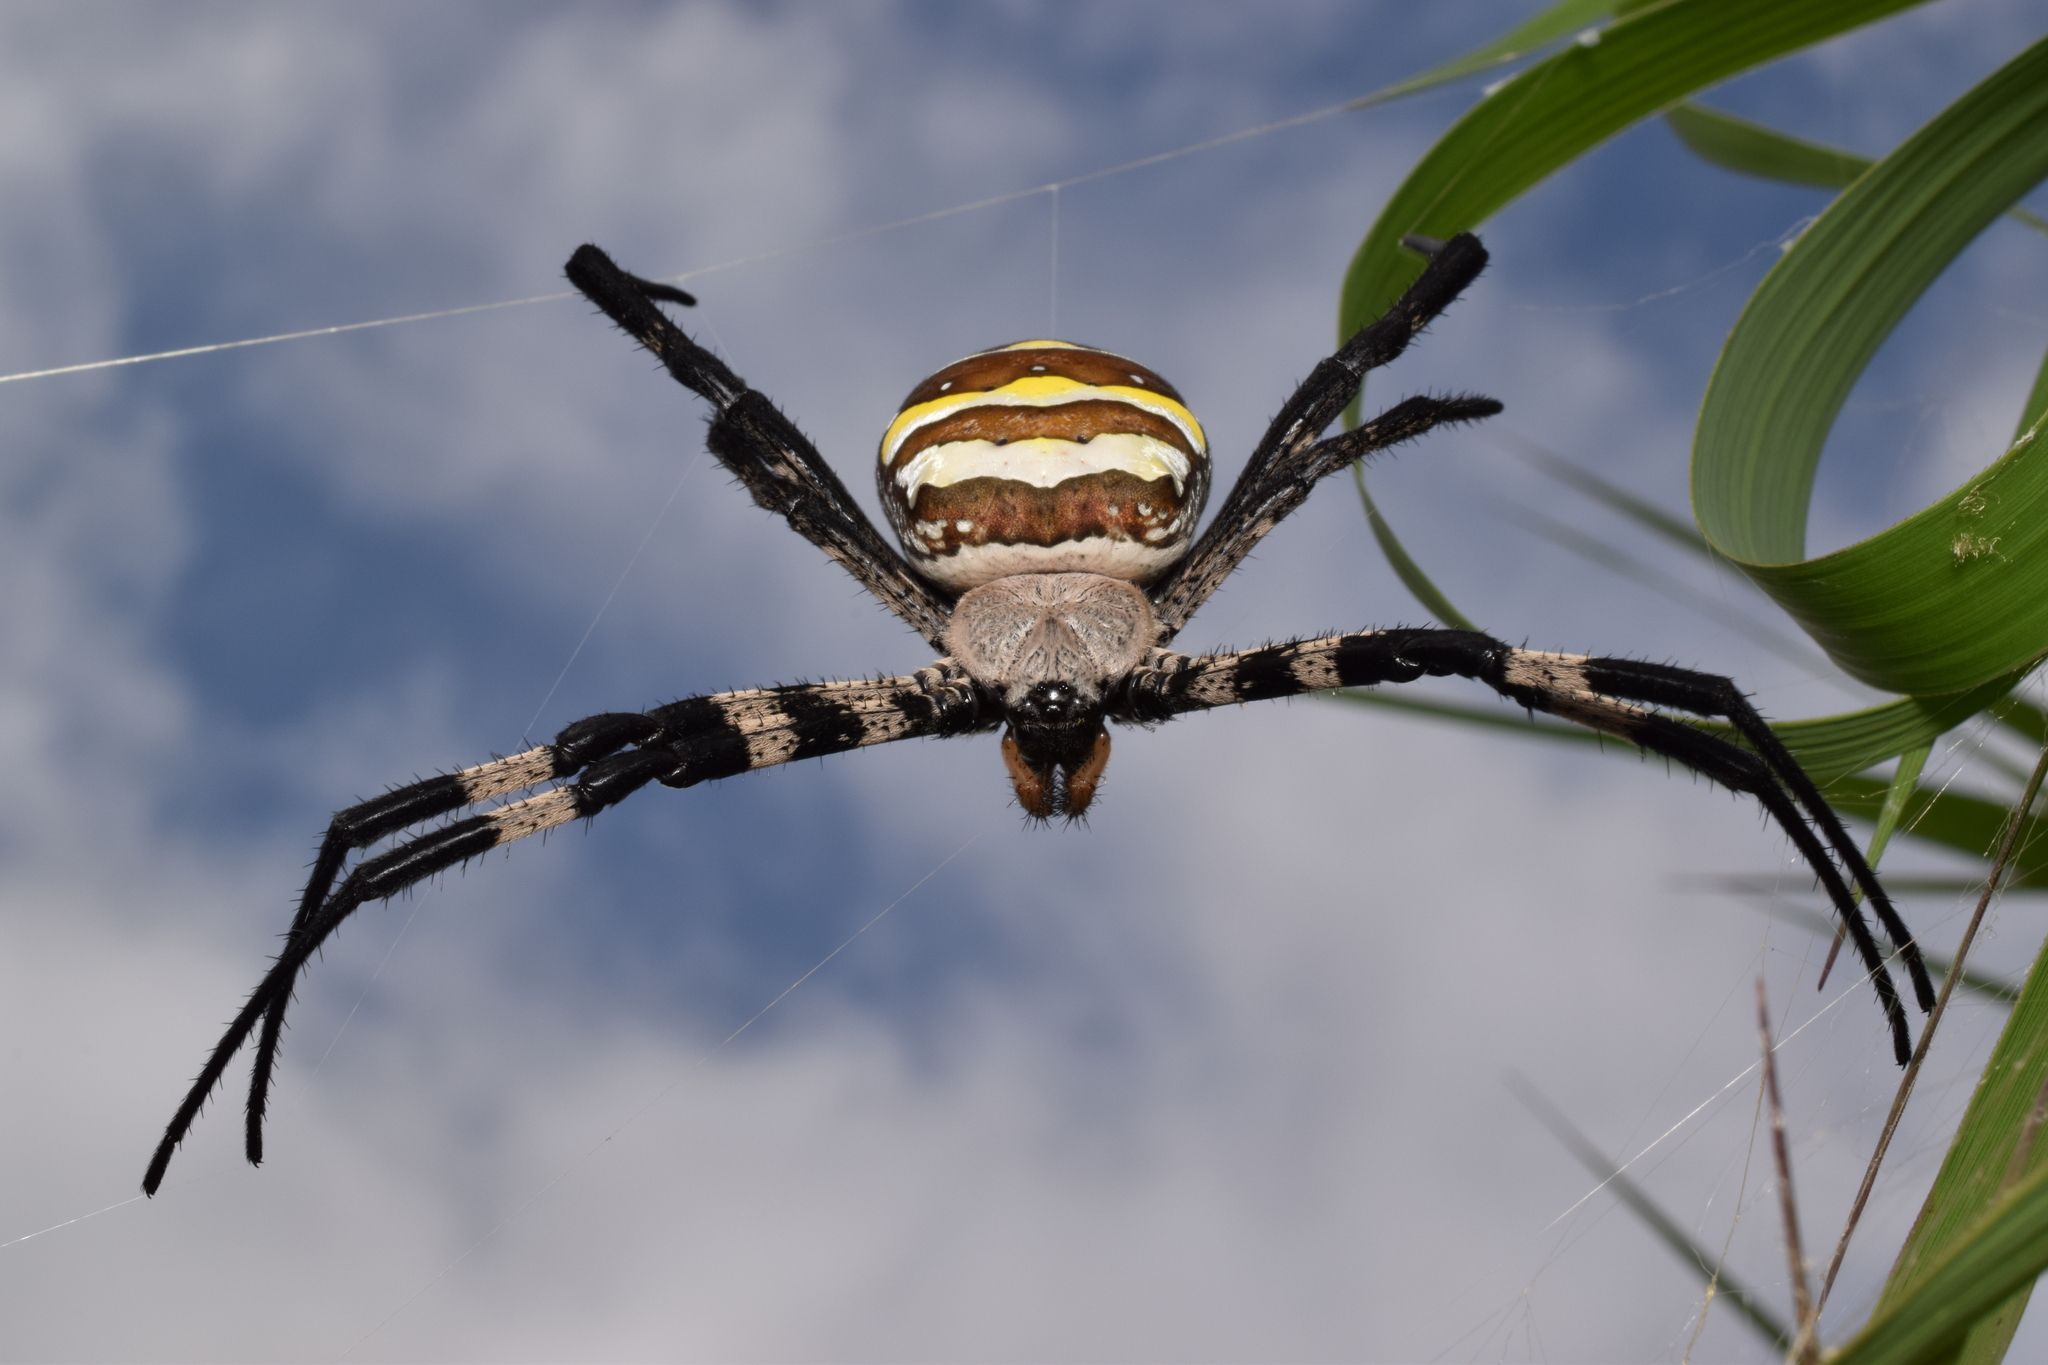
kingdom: Animalia
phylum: Arthropoda
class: Arachnida
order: Araneae
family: Araneidae
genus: Argiope
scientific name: Argiope amoena
